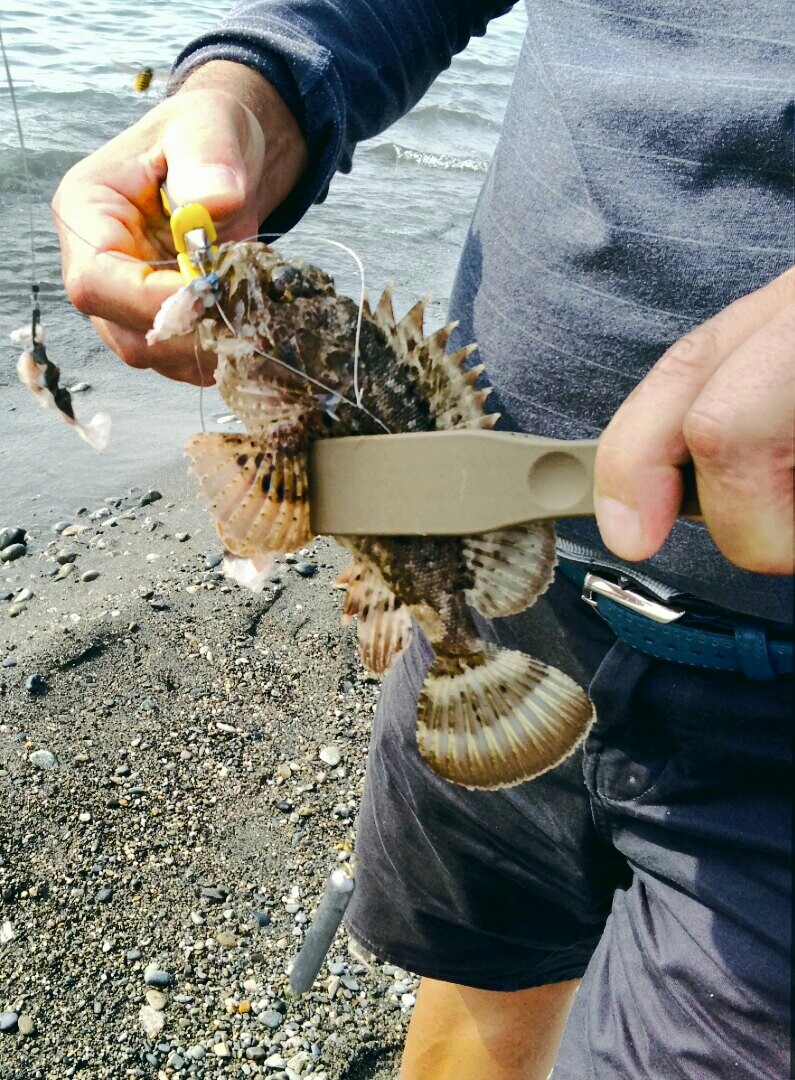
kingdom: Animalia
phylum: Chordata
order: Scorpaeniformes
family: Scorpaenidae
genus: Scorpaena
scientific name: Scorpaena porcus
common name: Black scorpionfish
